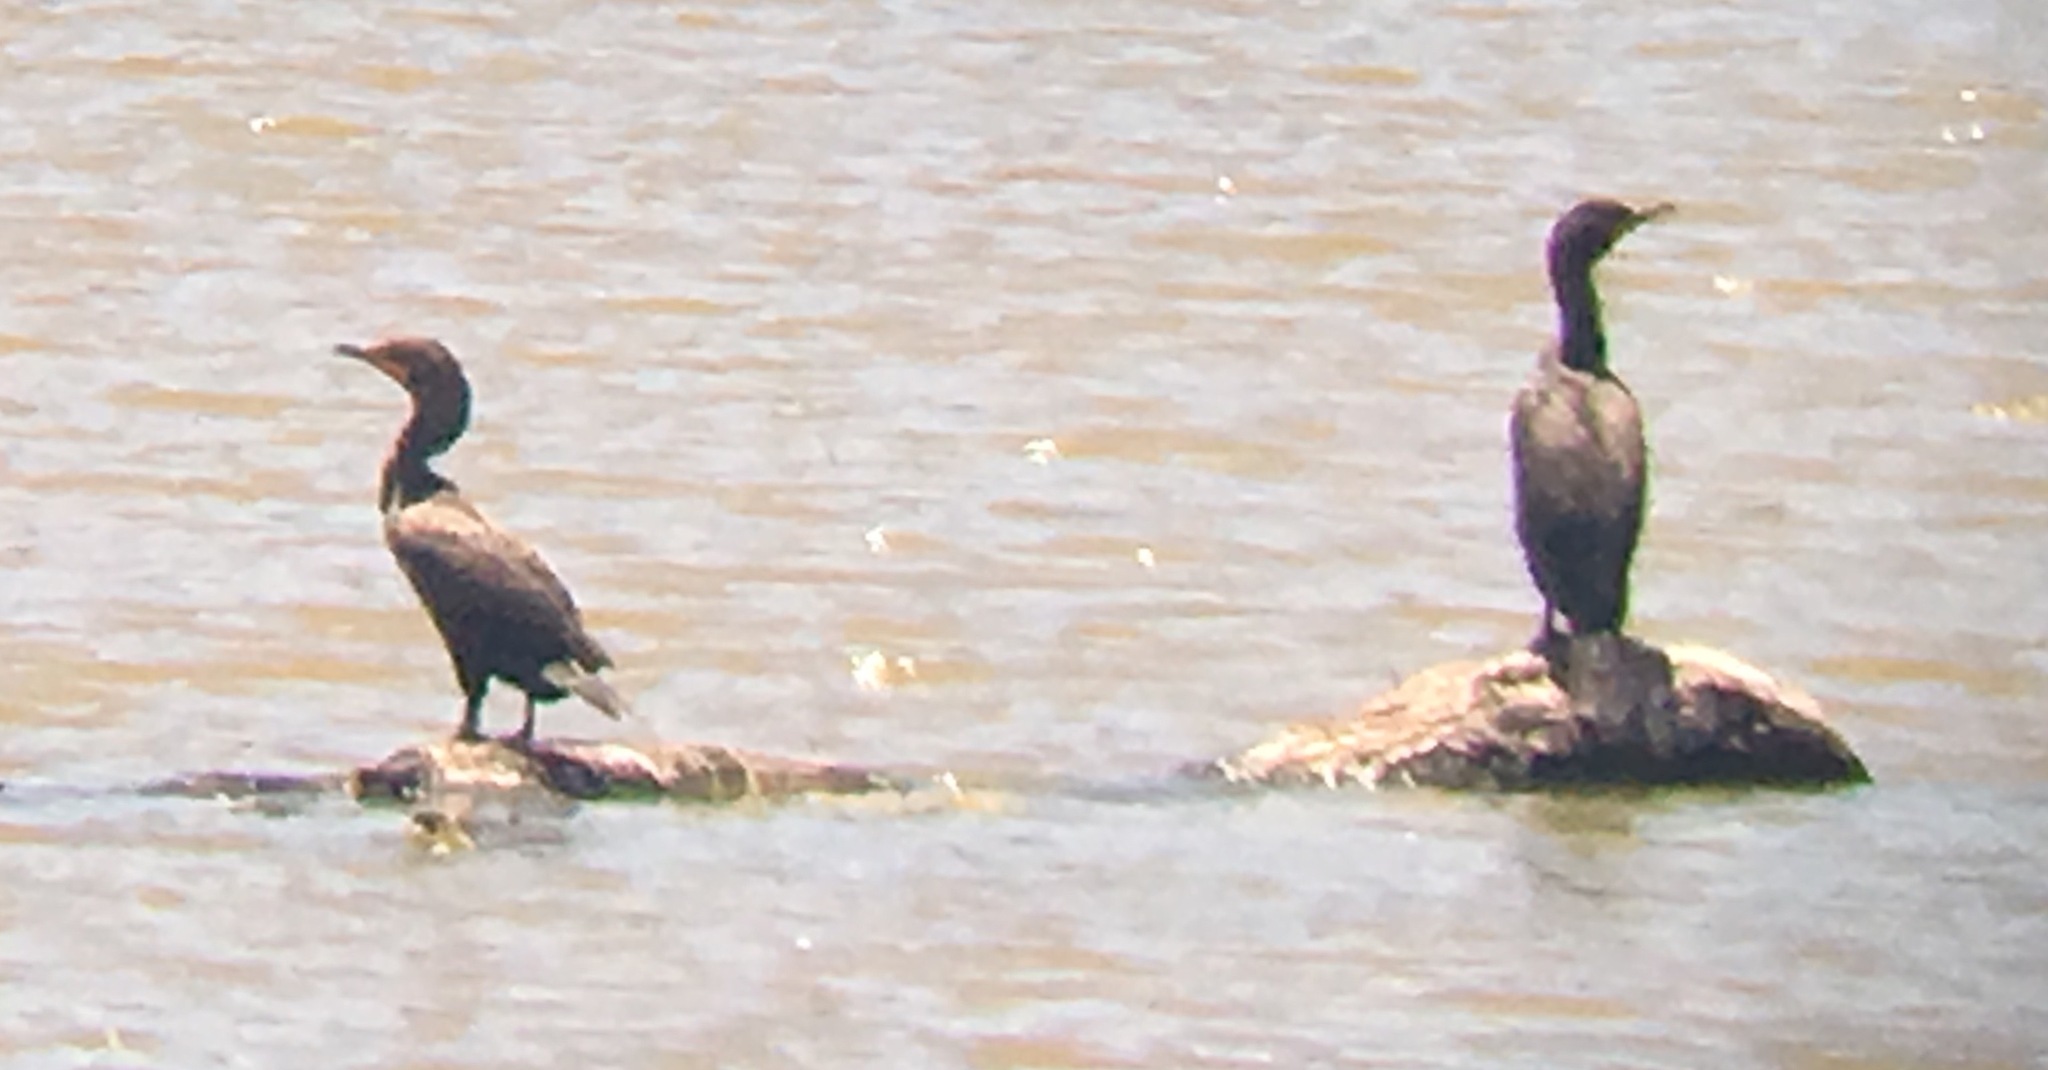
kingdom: Animalia
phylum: Chordata
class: Aves
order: Suliformes
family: Phalacrocoracidae
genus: Phalacrocorax
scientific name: Phalacrocorax auritus
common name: Double-crested cormorant
